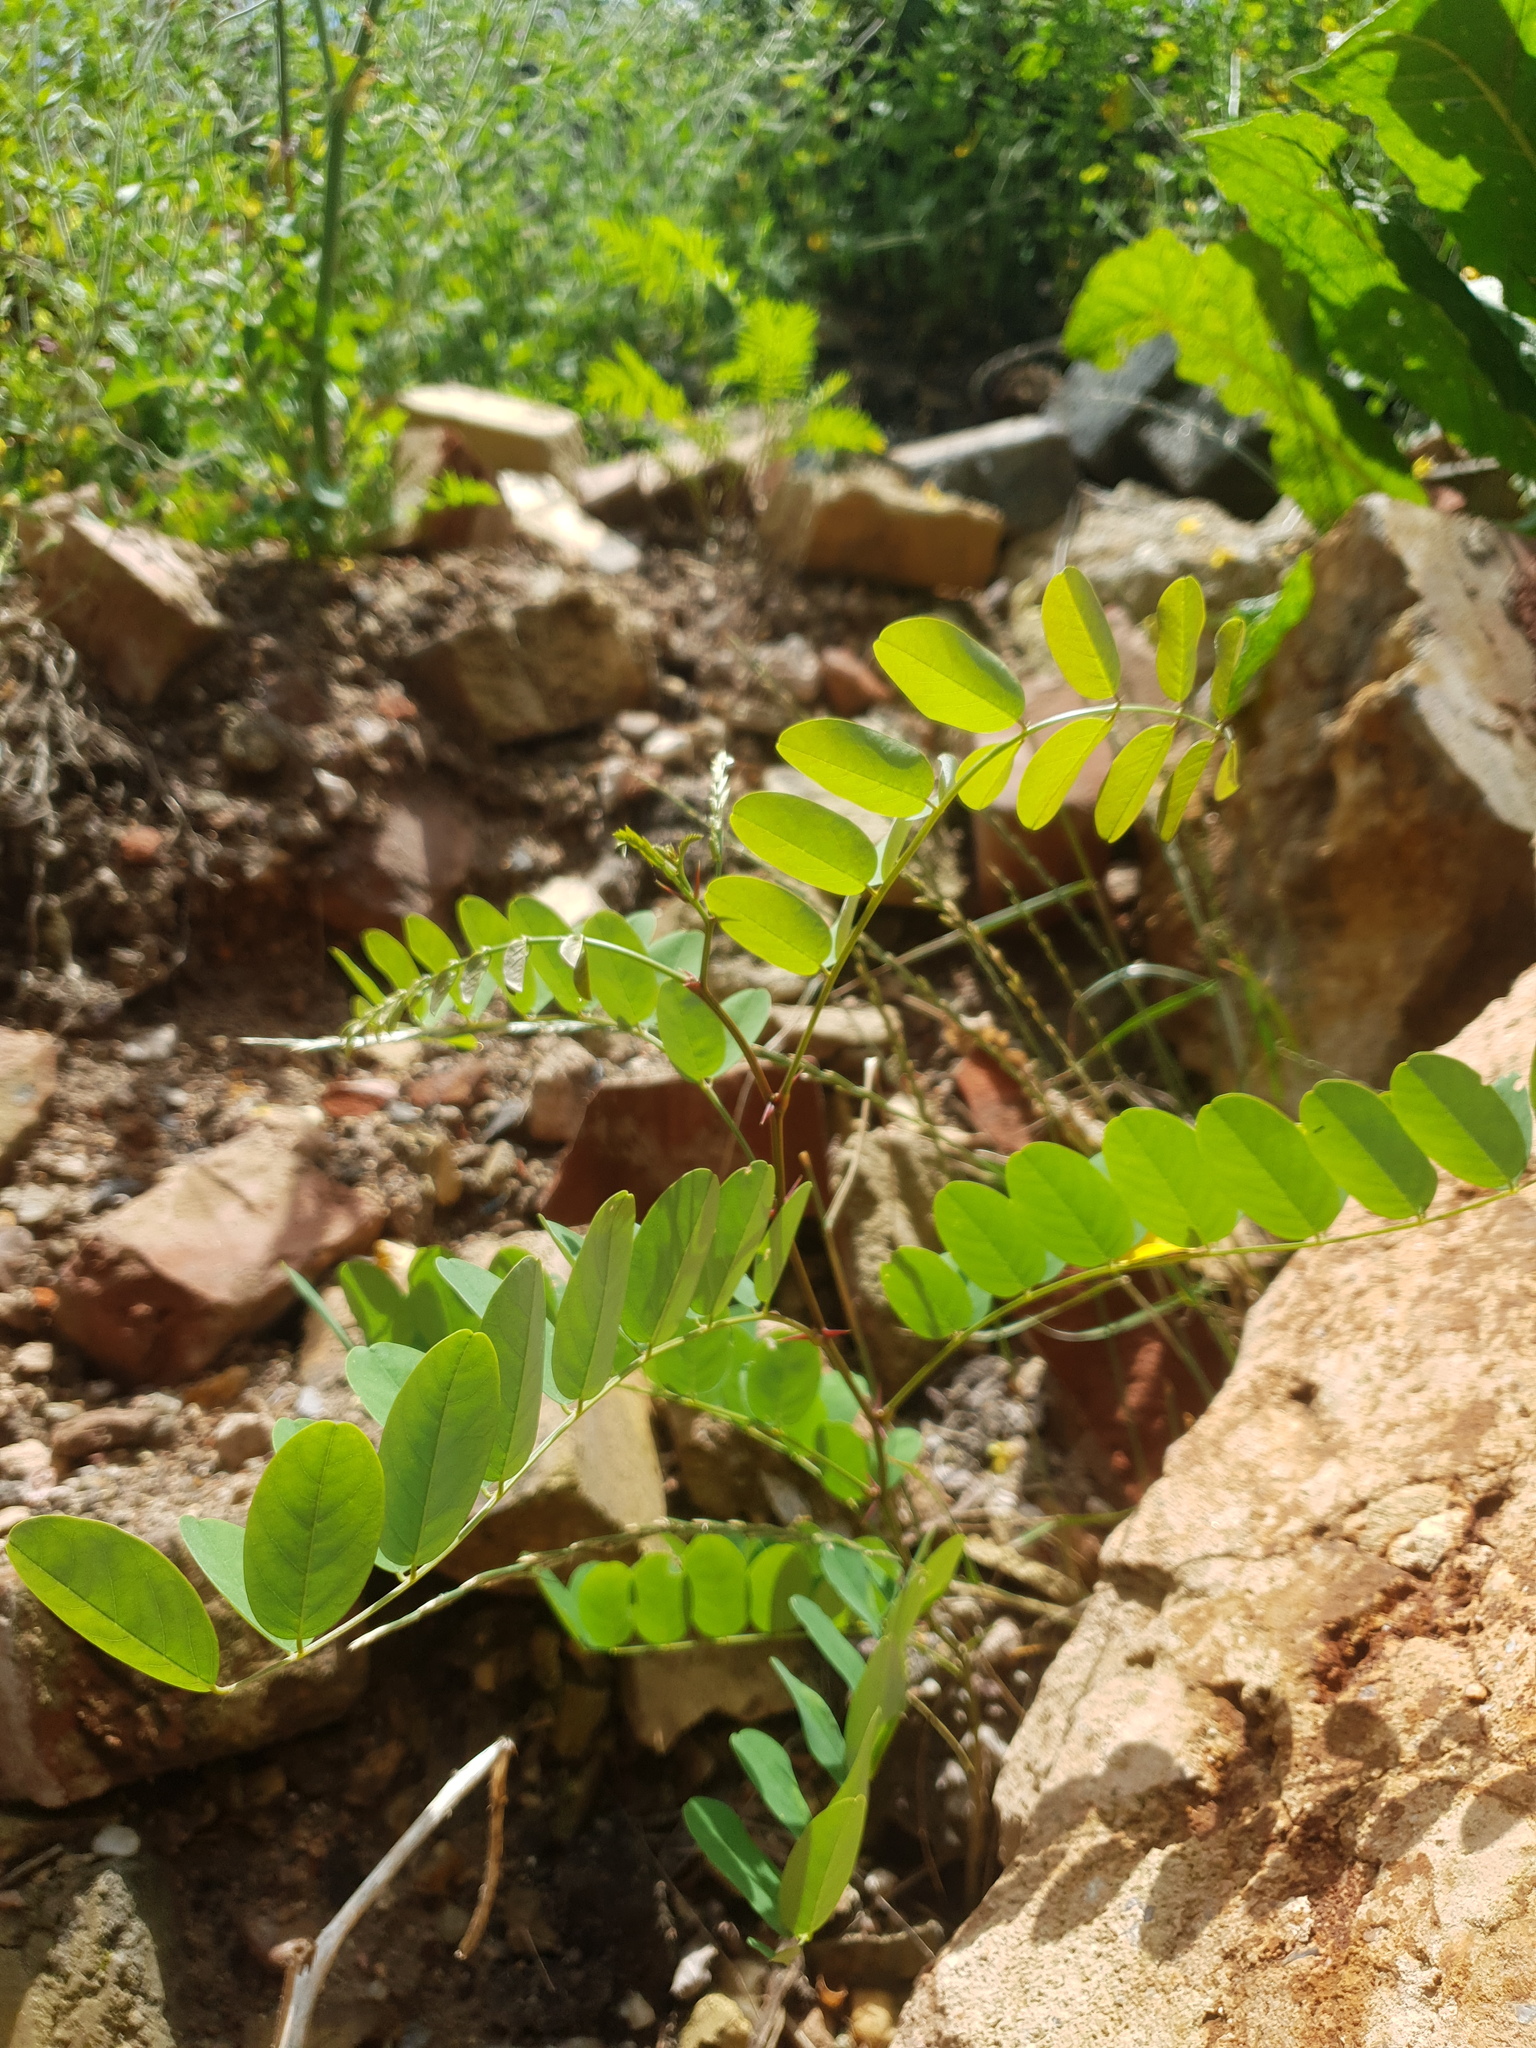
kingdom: Plantae
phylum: Tracheophyta
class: Magnoliopsida
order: Fabales
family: Fabaceae
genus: Robinia
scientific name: Robinia pseudoacacia
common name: Black locust
